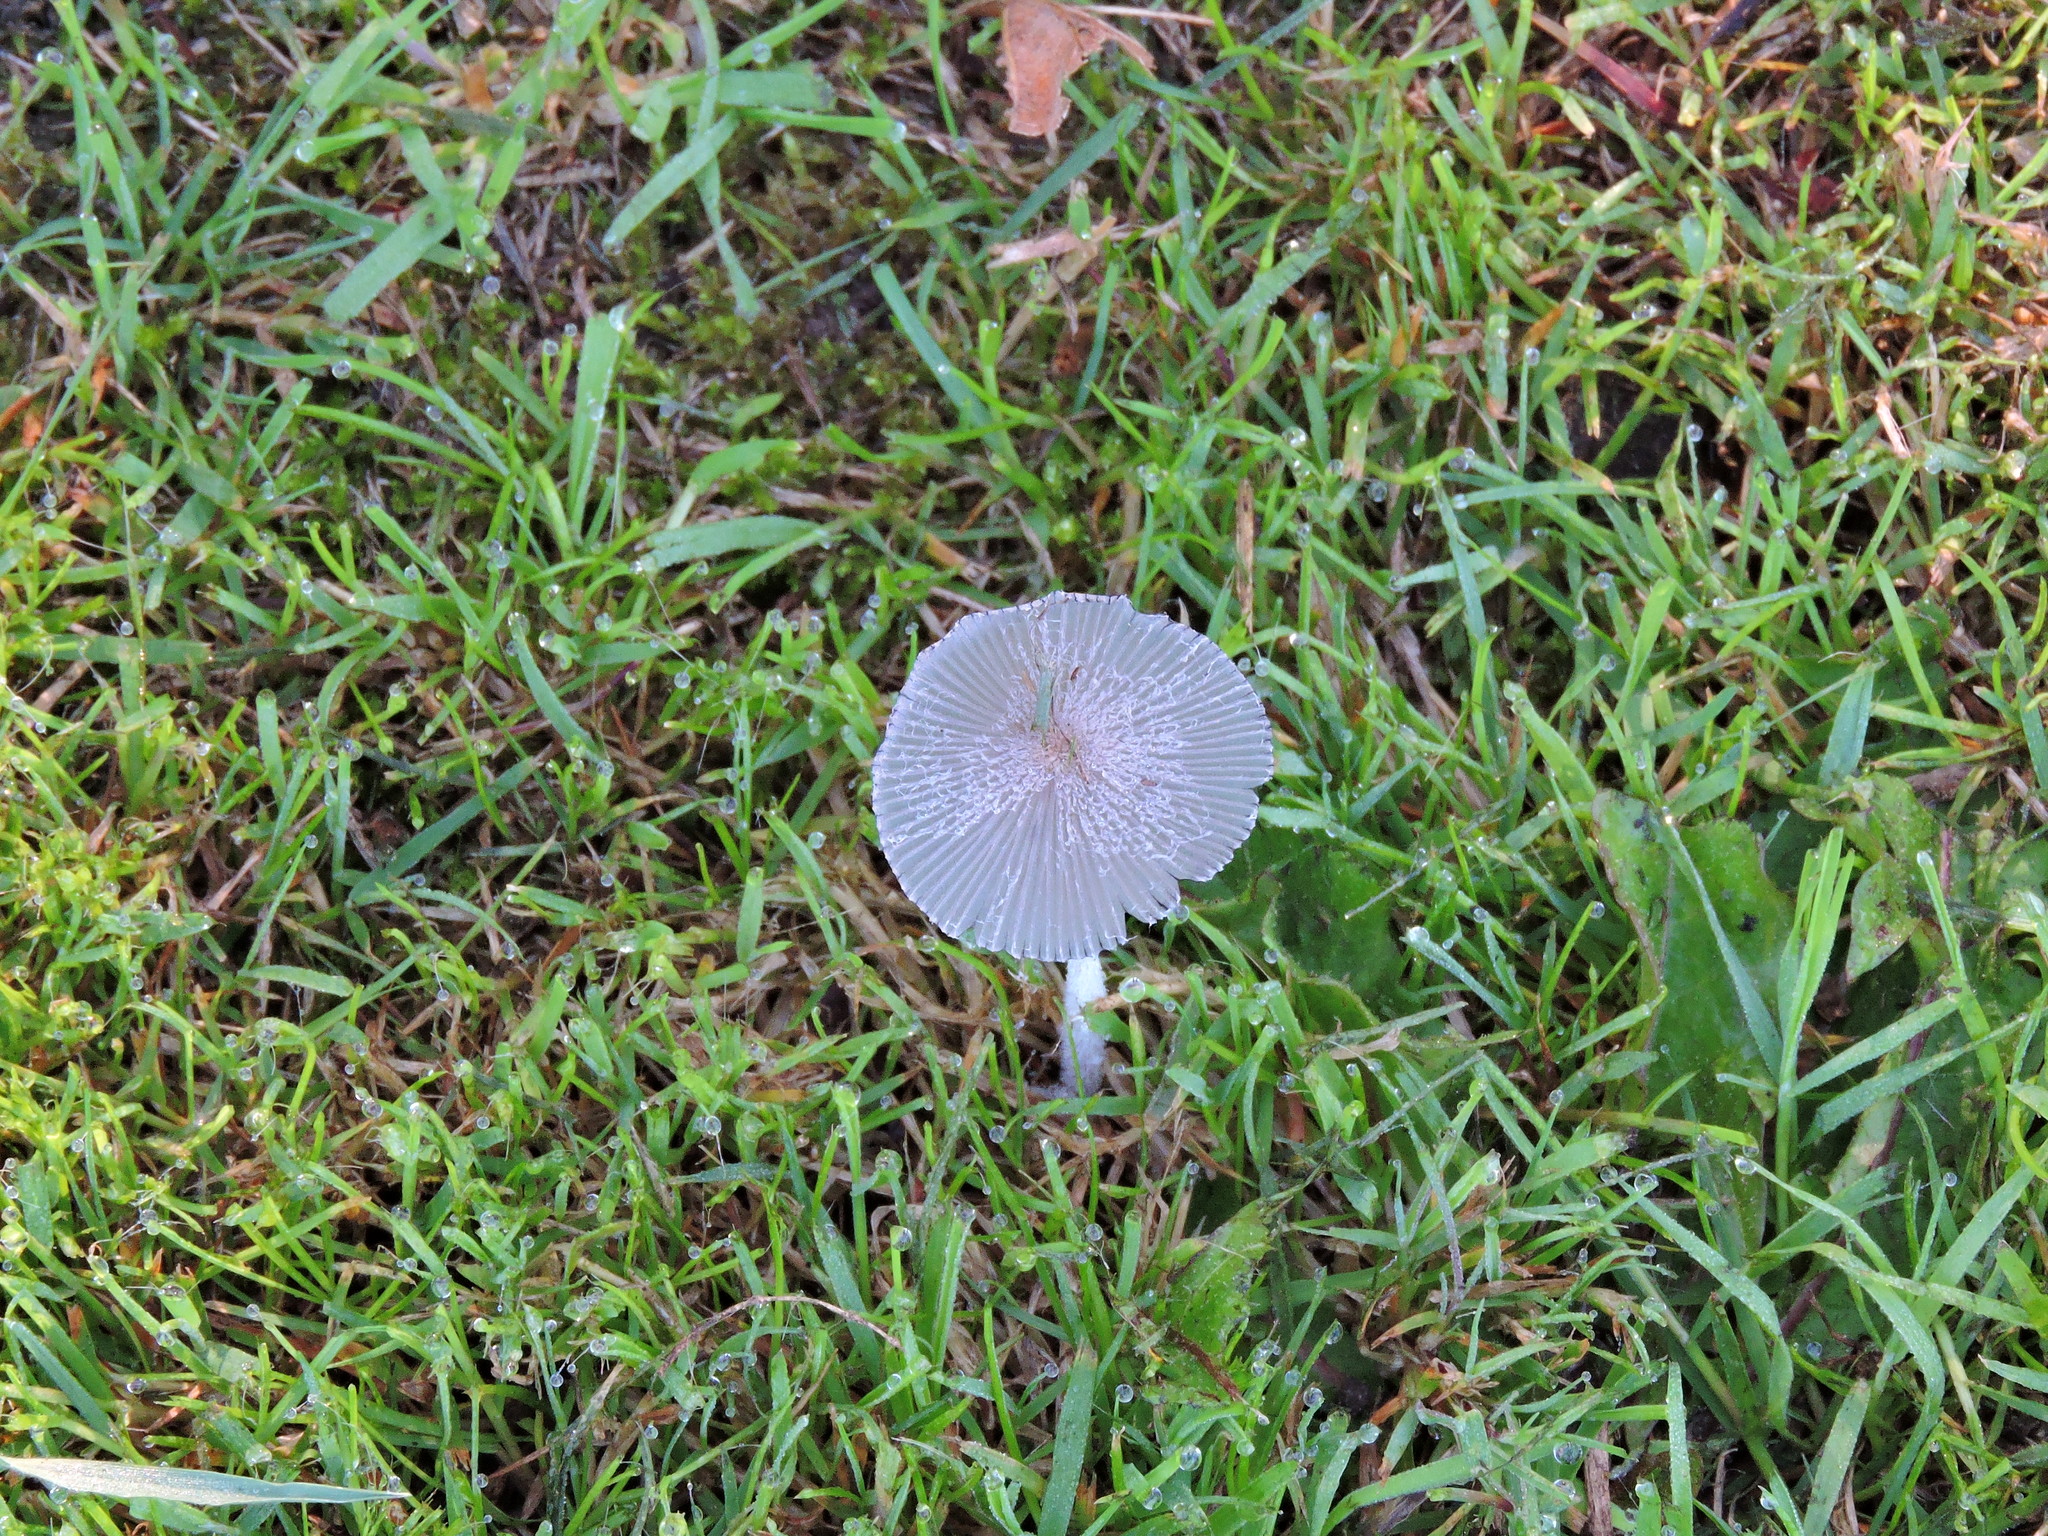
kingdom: Fungi
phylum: Basidiomycota
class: Agaricomycetes
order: Agaricales
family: Psathyrellaceae
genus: Coprinopsis
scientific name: Coprinopsis lagopus
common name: Hare'sfoot inkcap
